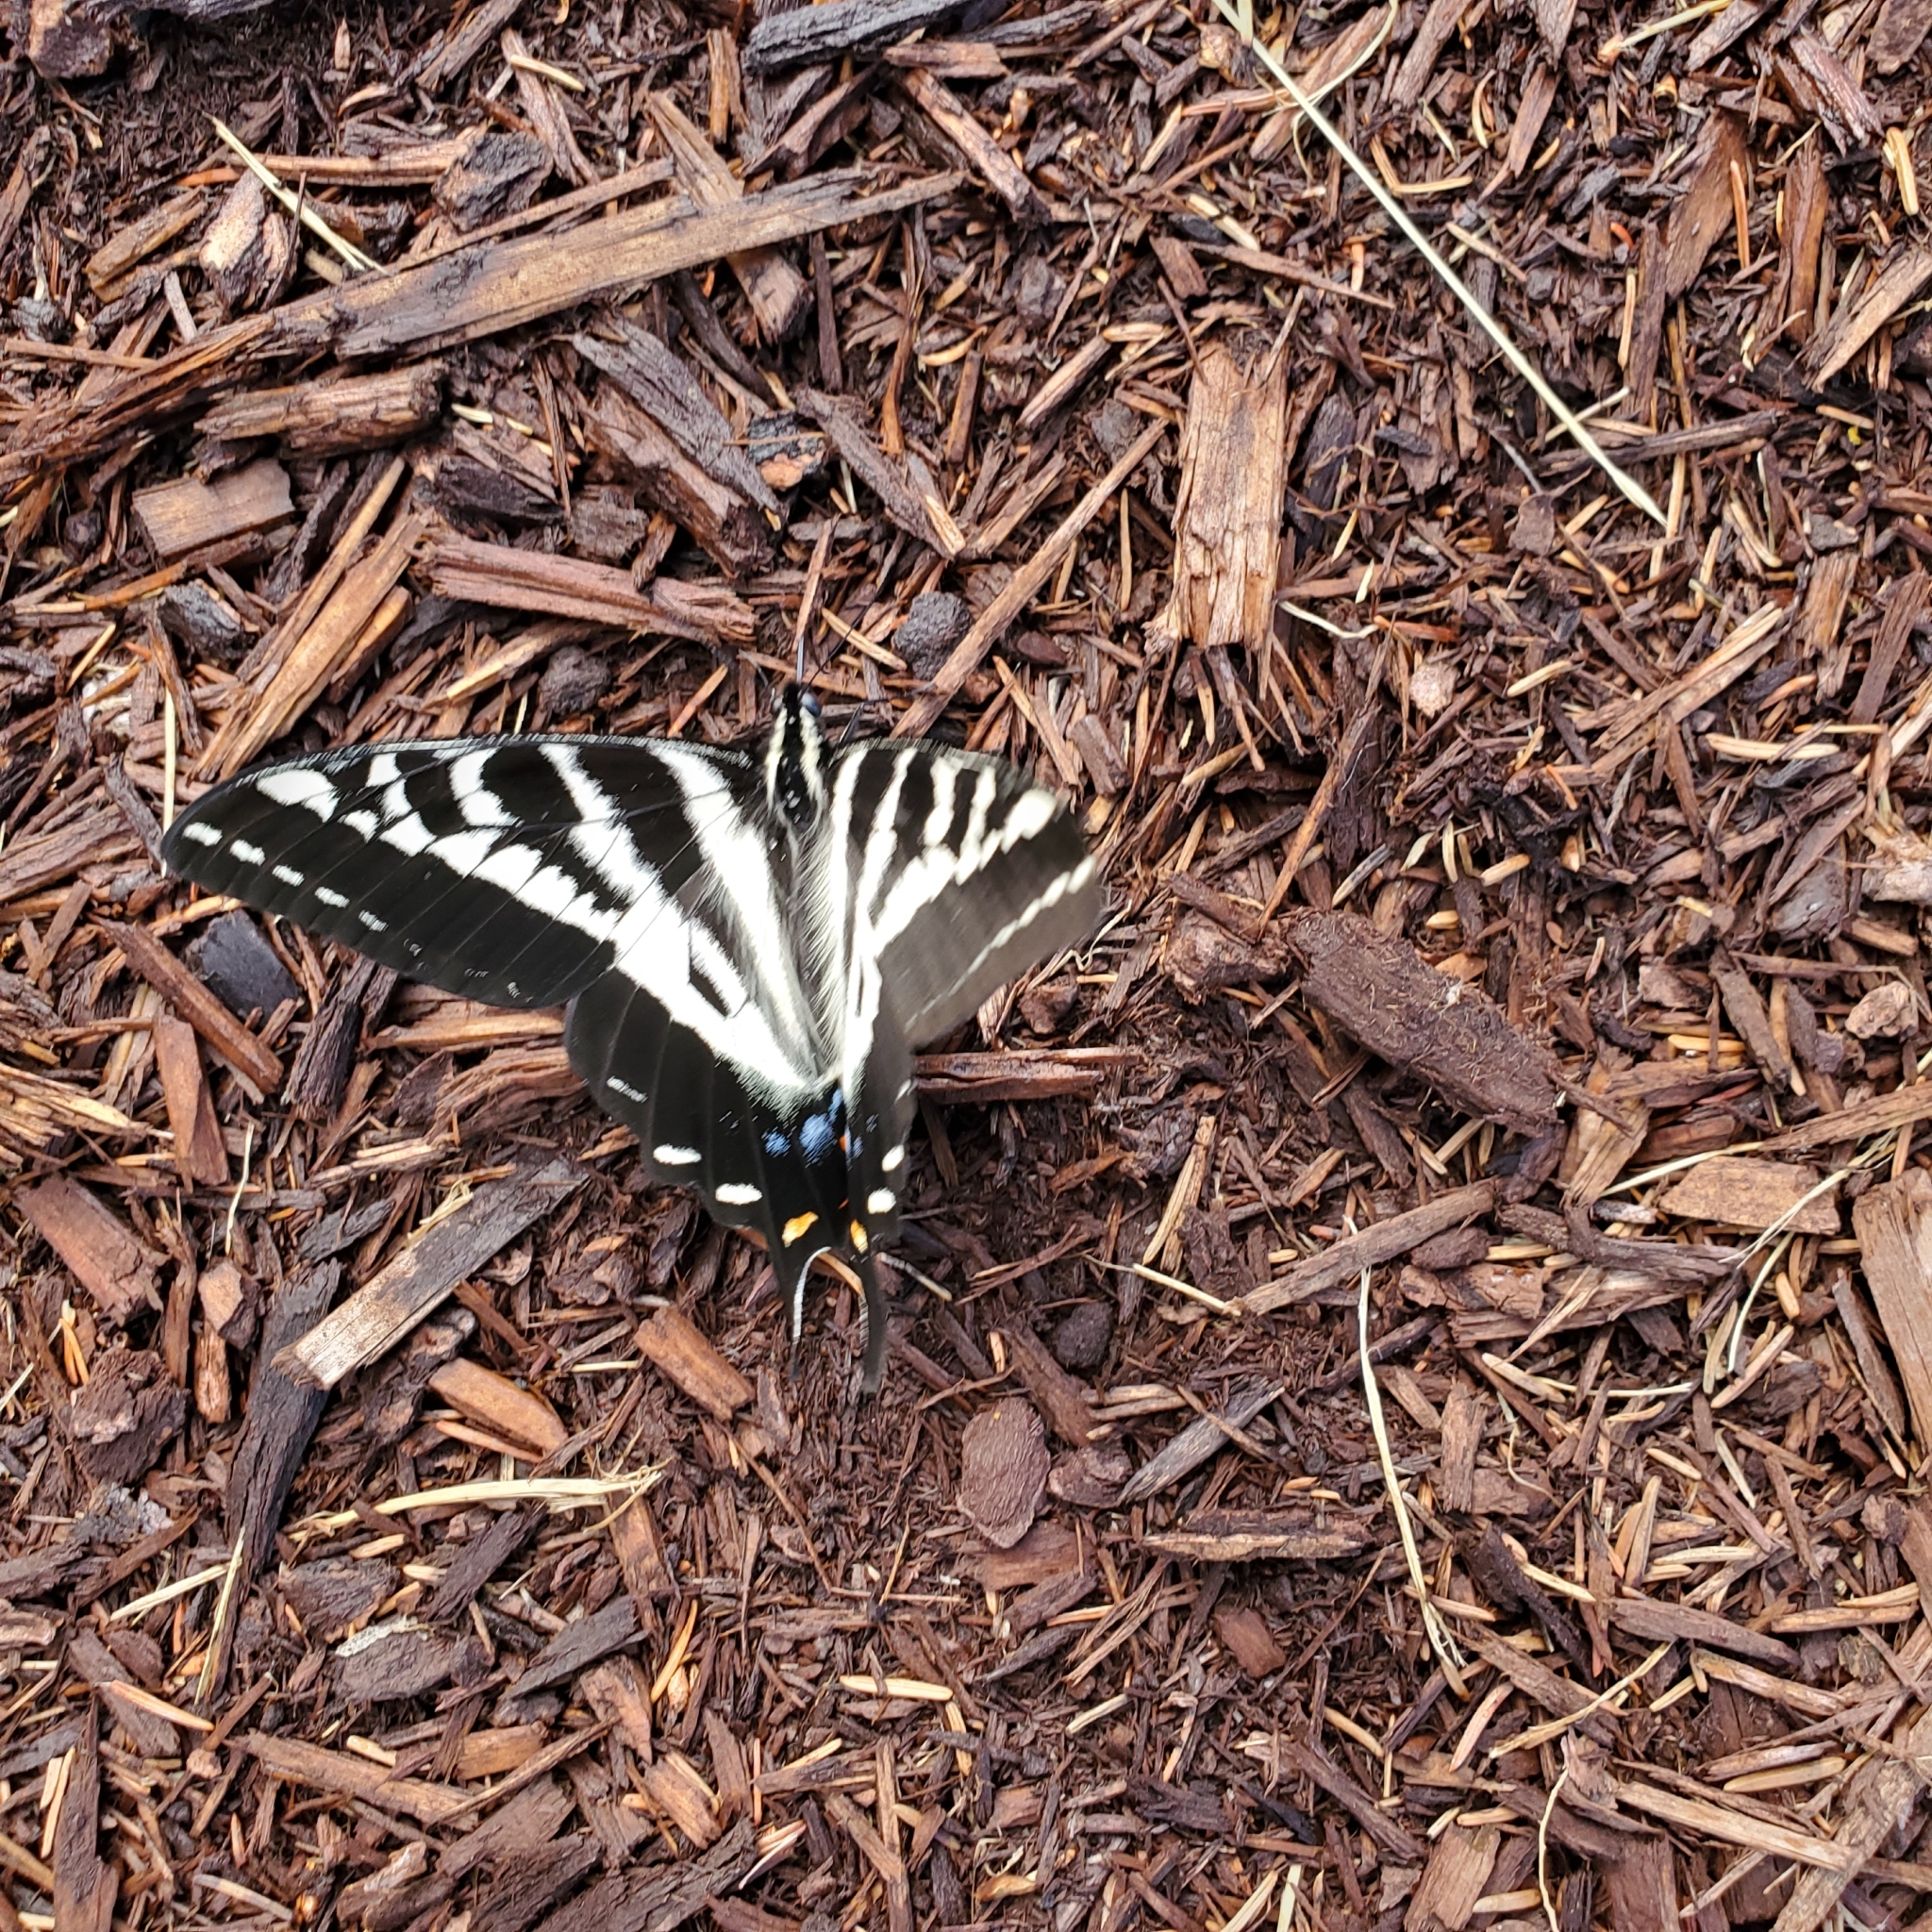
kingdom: Animalia
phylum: Arthropoda
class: Insecta
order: Lepidoptera
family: Papilionidae
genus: Papilio
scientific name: Papilio eurymedon
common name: Pale tiger swallowtail
